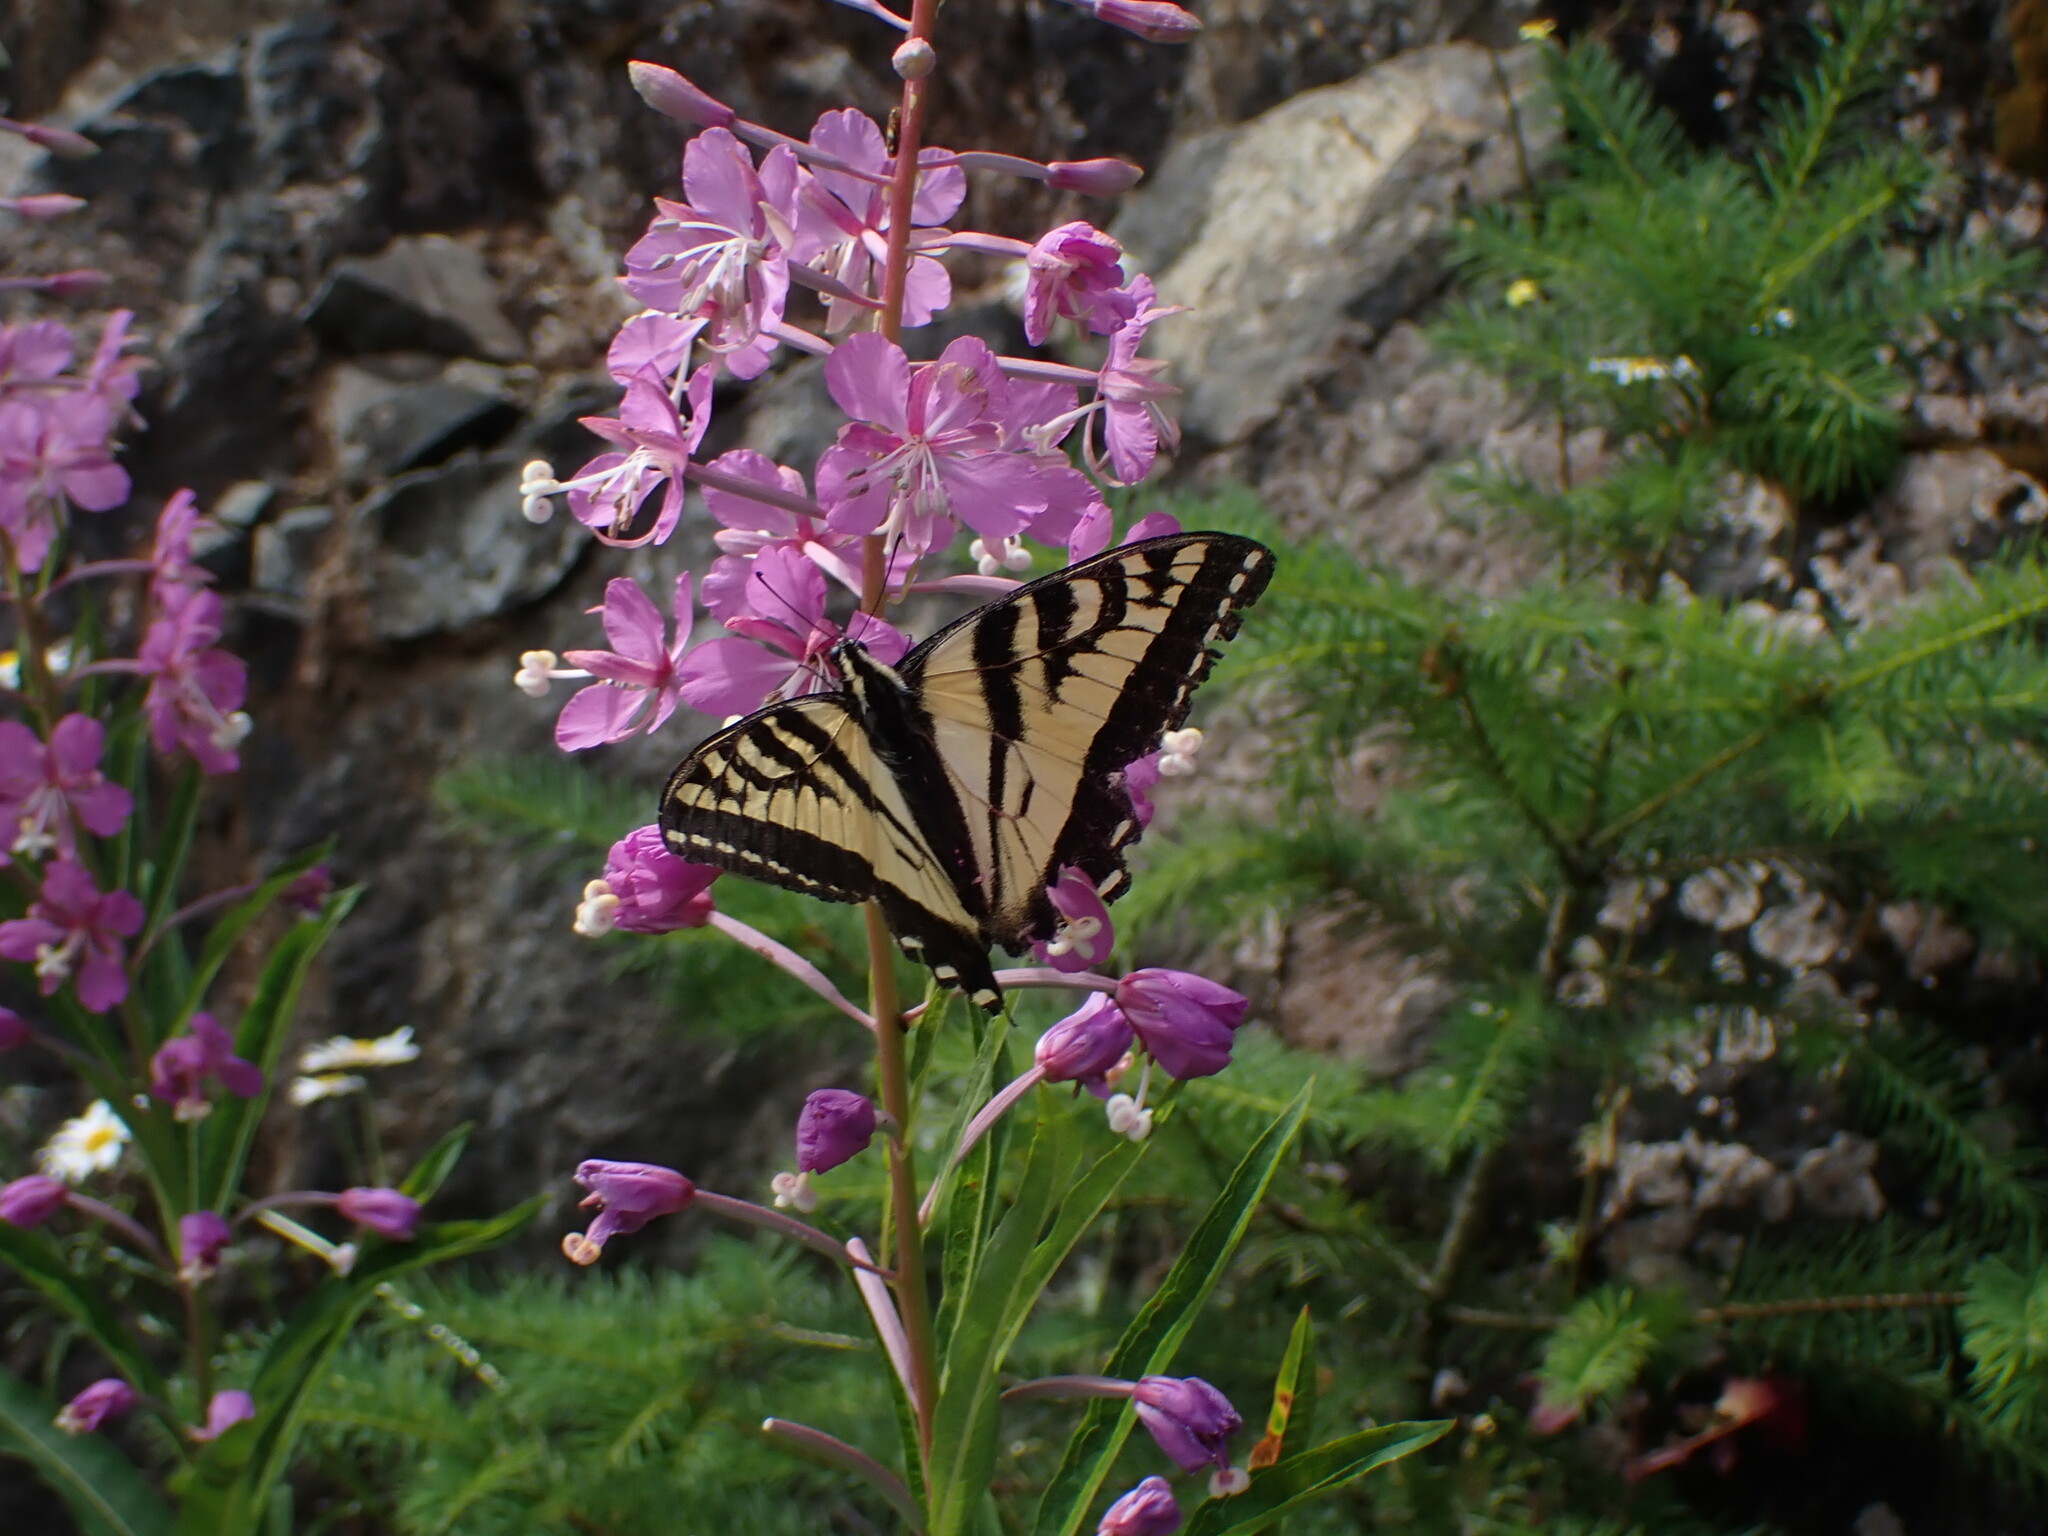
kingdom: Animalia
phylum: Arthropoda
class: Insecta
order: Lepidoptera
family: Papilionidae
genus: Papilio
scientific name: Papilio rutulus
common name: Western tiger swallowtail
